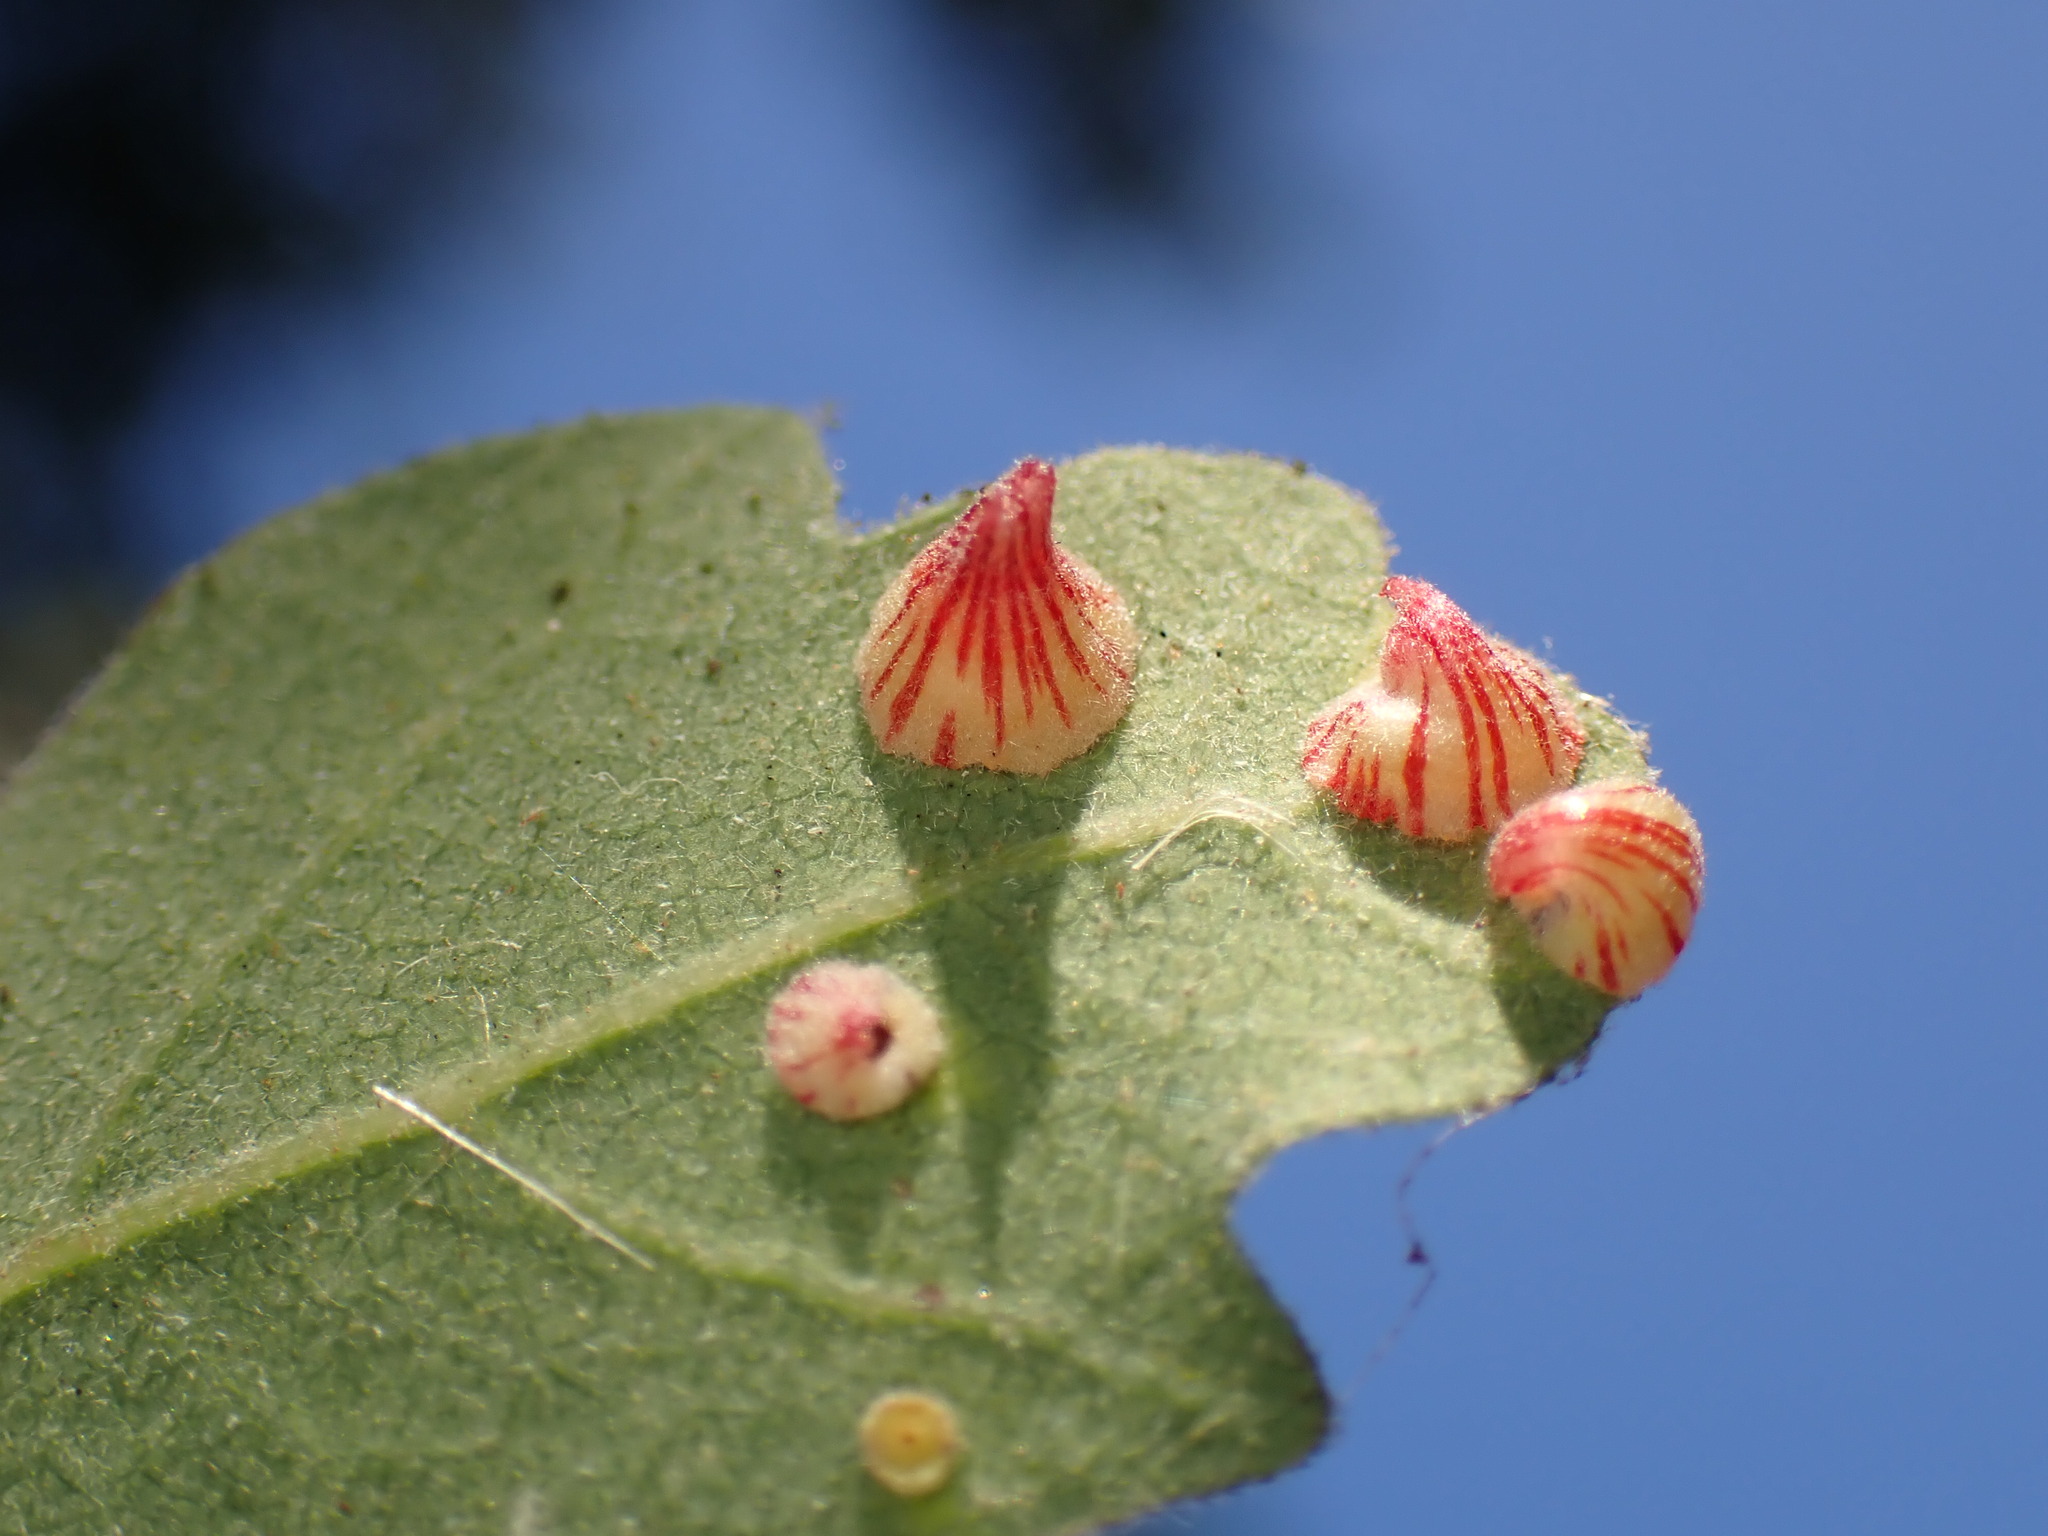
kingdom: Animalia
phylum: Arthropoda
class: Insecta
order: Hymenoptera
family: Cynipidae
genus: Andricus
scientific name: Andricus
